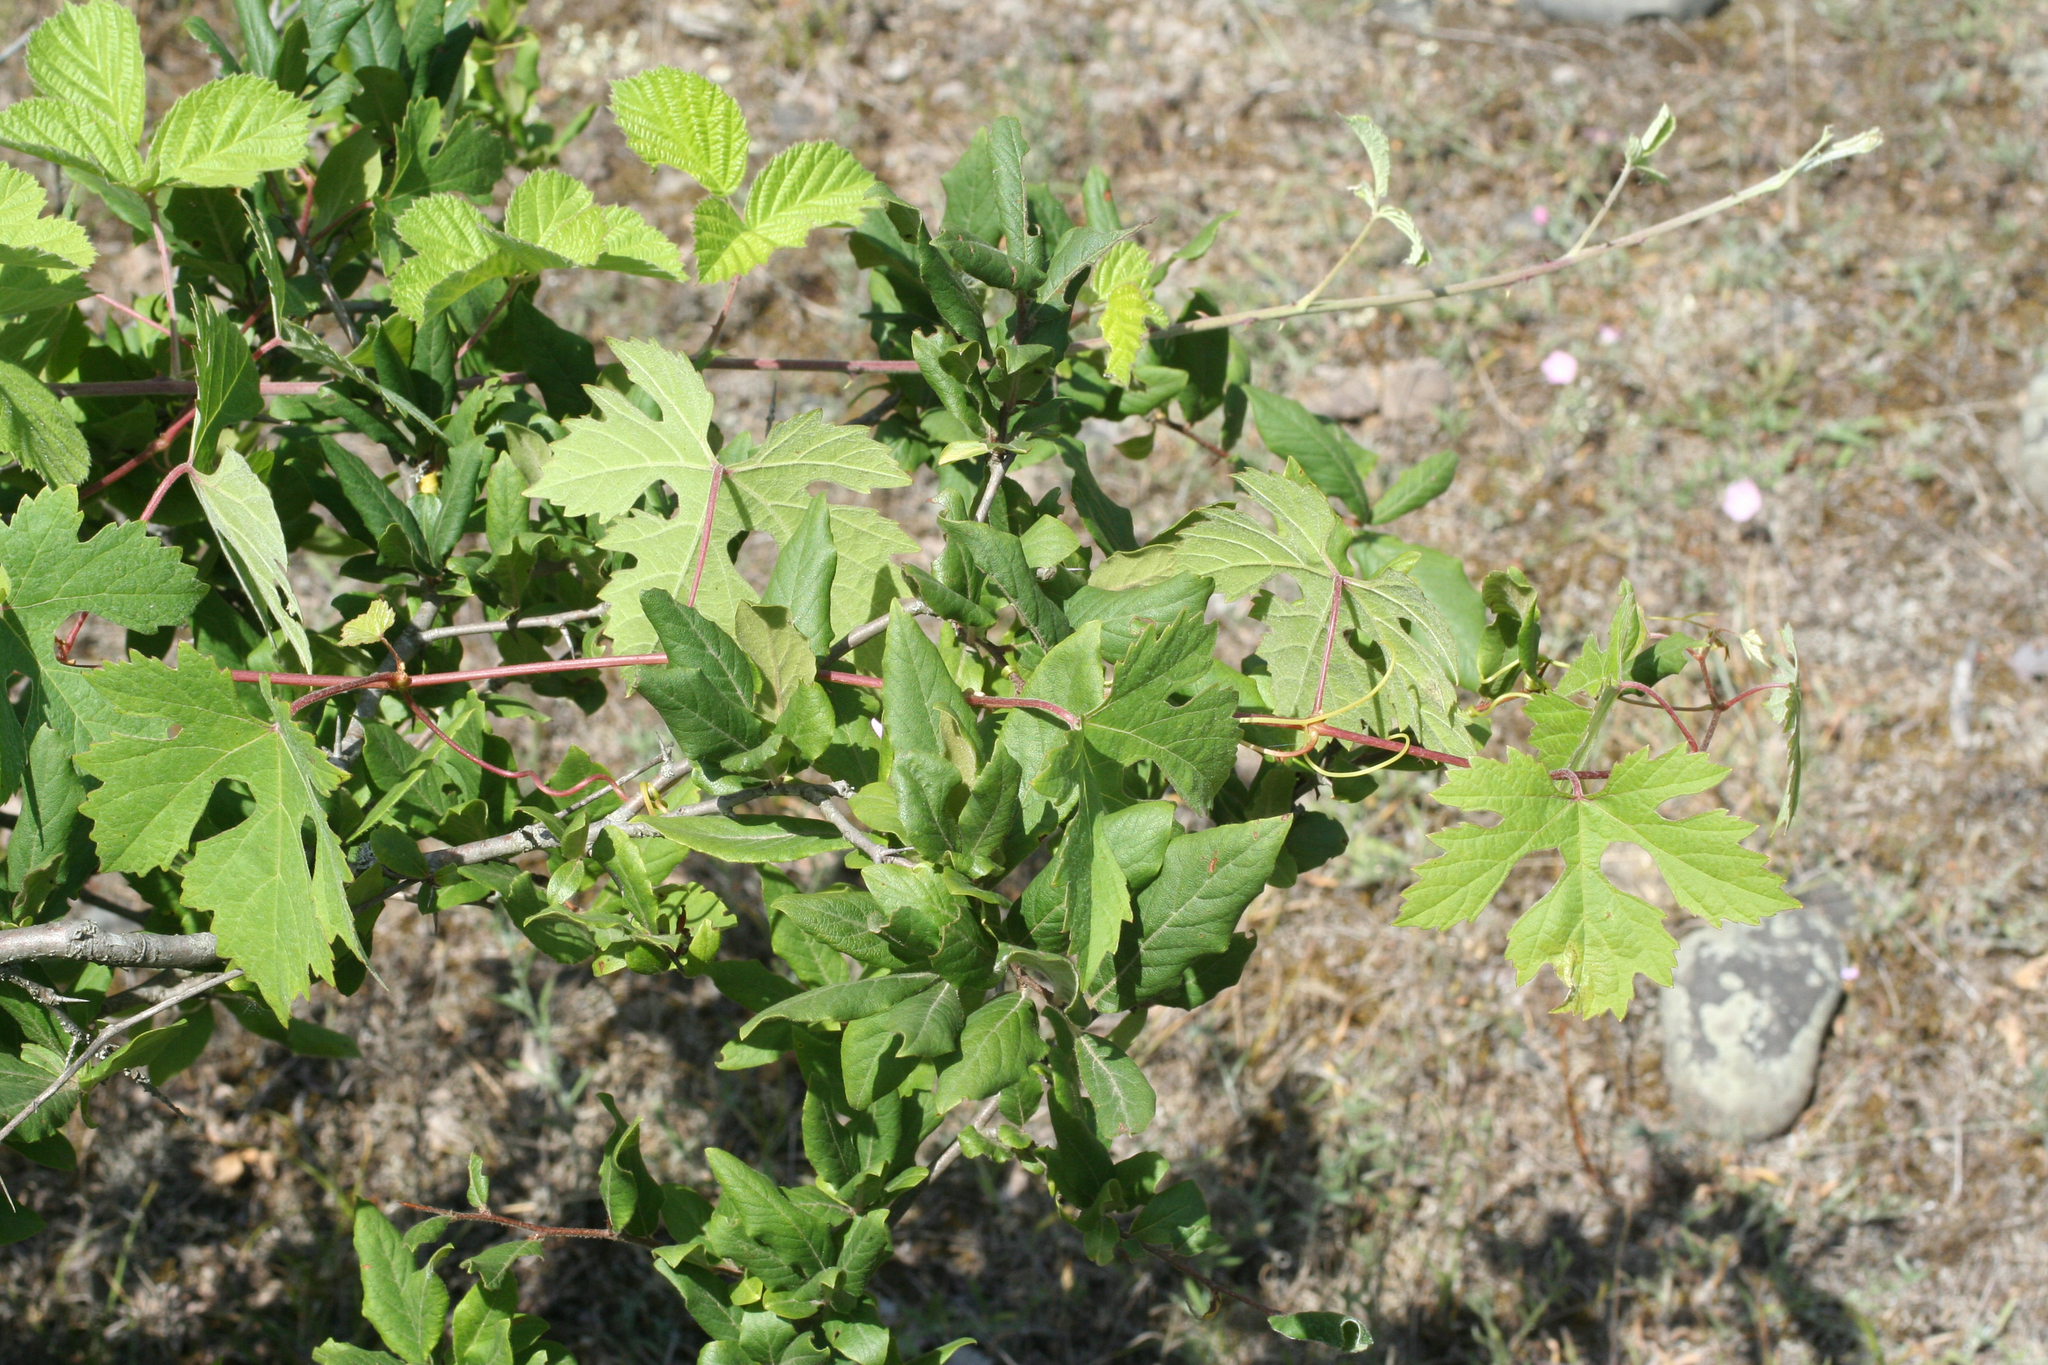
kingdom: Plantae
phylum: Tracheophyta
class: Magnoliopsida
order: Vitales
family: Vitaceae
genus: Vitis
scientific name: Vitis gmelinii
